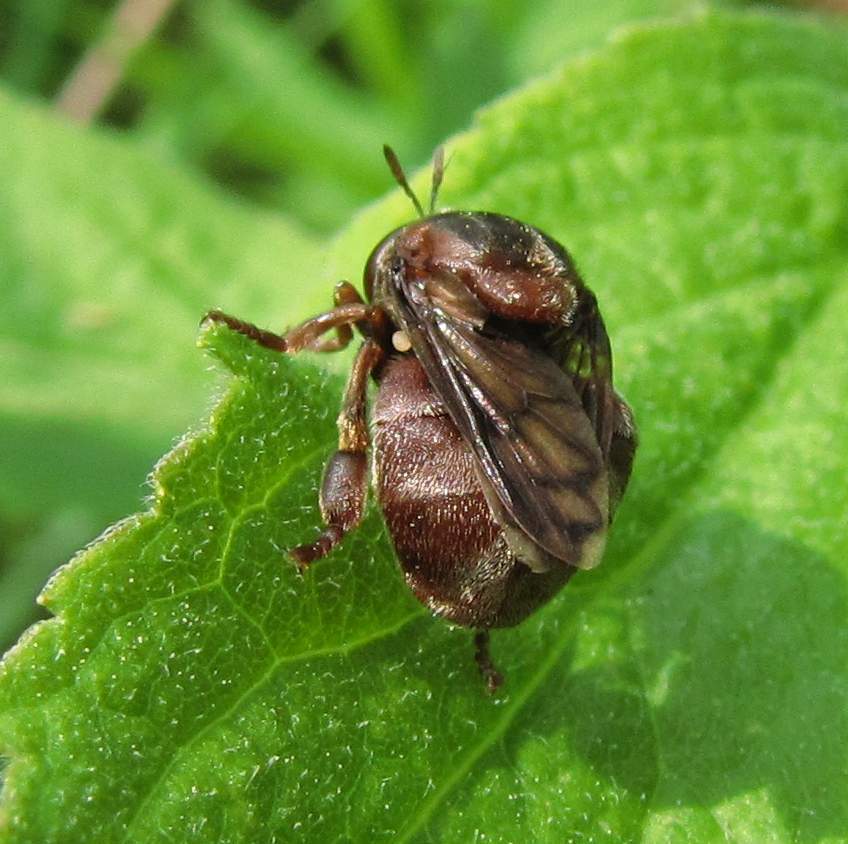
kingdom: Animalia
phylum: Arthropoda
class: Insecta
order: Diptera
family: Syrphidae
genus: Microdon
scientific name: Microdon abditus
